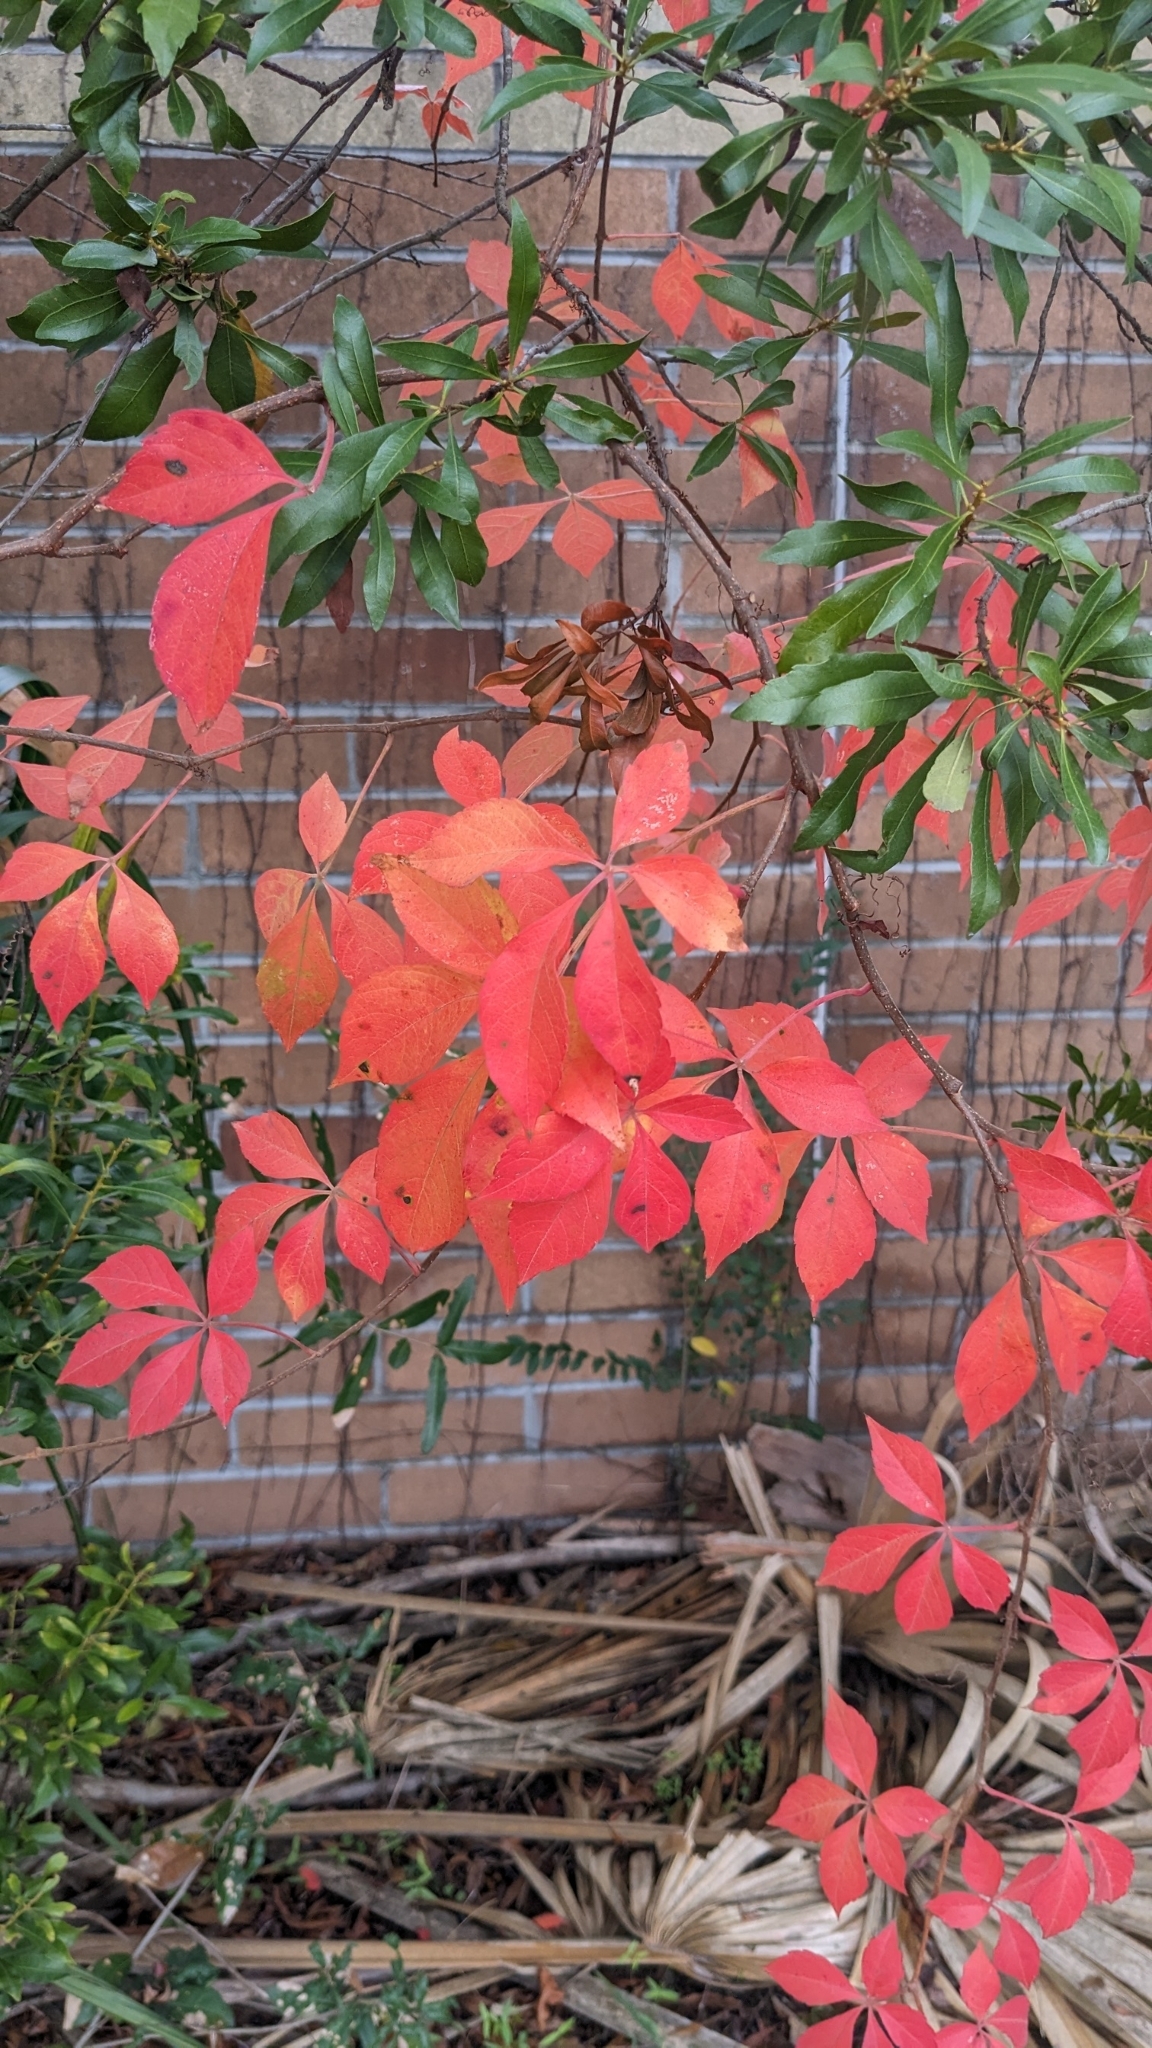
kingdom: Plantae
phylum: Tracheophyta
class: Magnoliopsida
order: Vitales
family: Vitaceae
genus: Parthenocissus
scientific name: Parthenocissus quinquefolia
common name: Virginia-creeper
